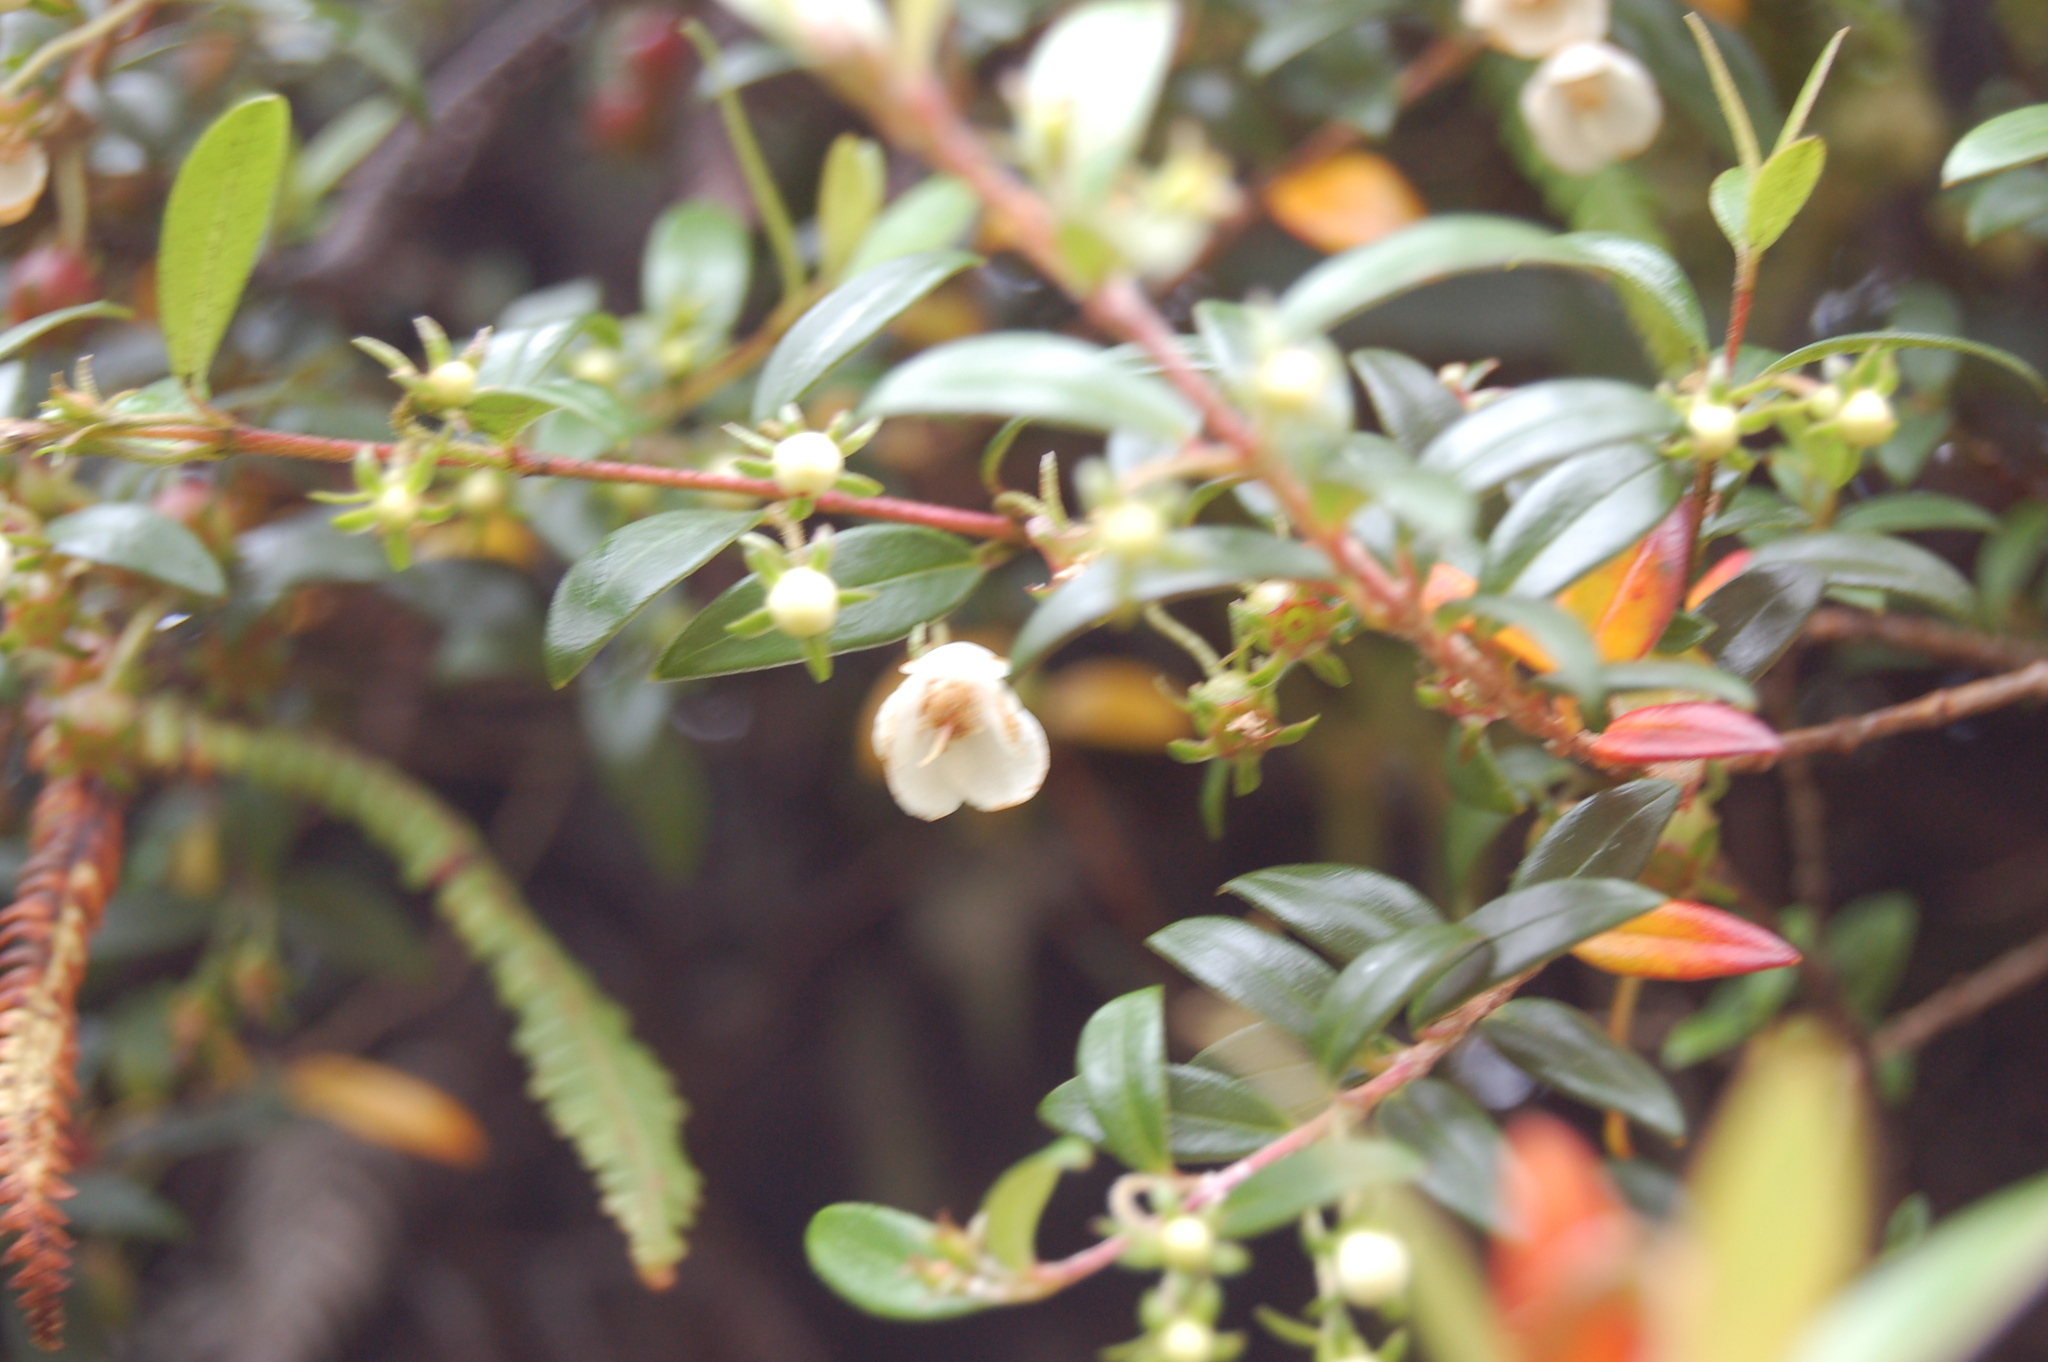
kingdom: Plantae
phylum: Tracheophyta
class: Magnoliopsida
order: Myrtales
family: Myrtaceae
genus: Ugni
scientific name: Ugni myricoides
